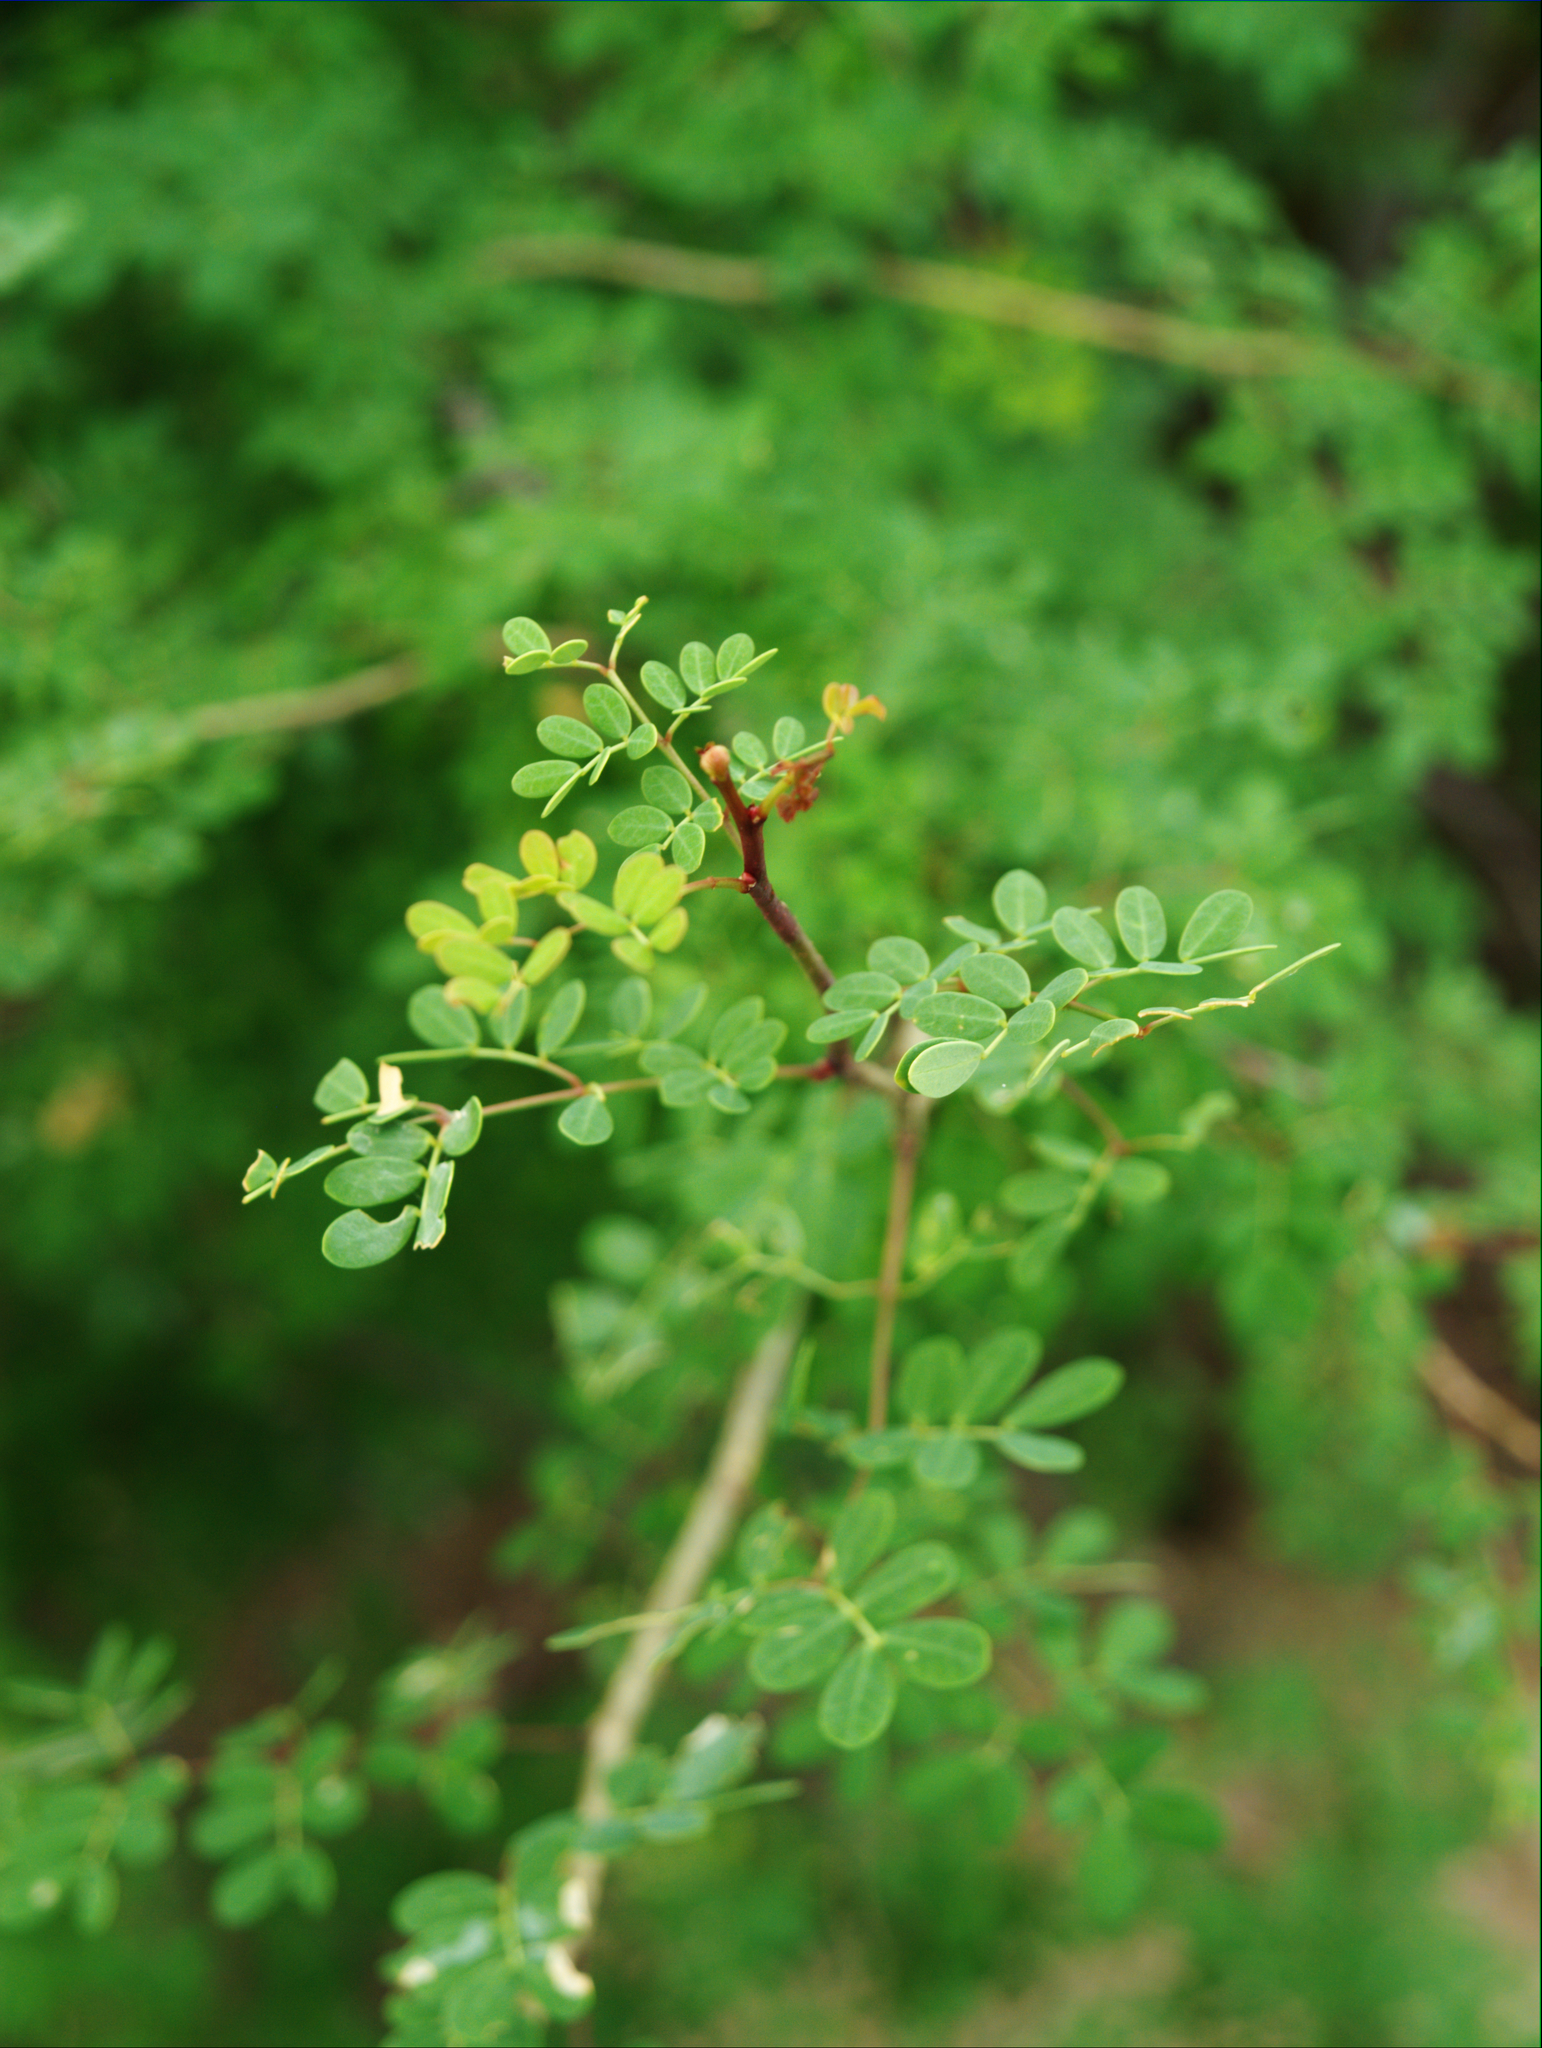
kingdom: Plantae
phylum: Tracheophyta
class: Magnoliopsida
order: Fabales
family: Fabaceae
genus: Mimosa
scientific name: Mimosa distachya
